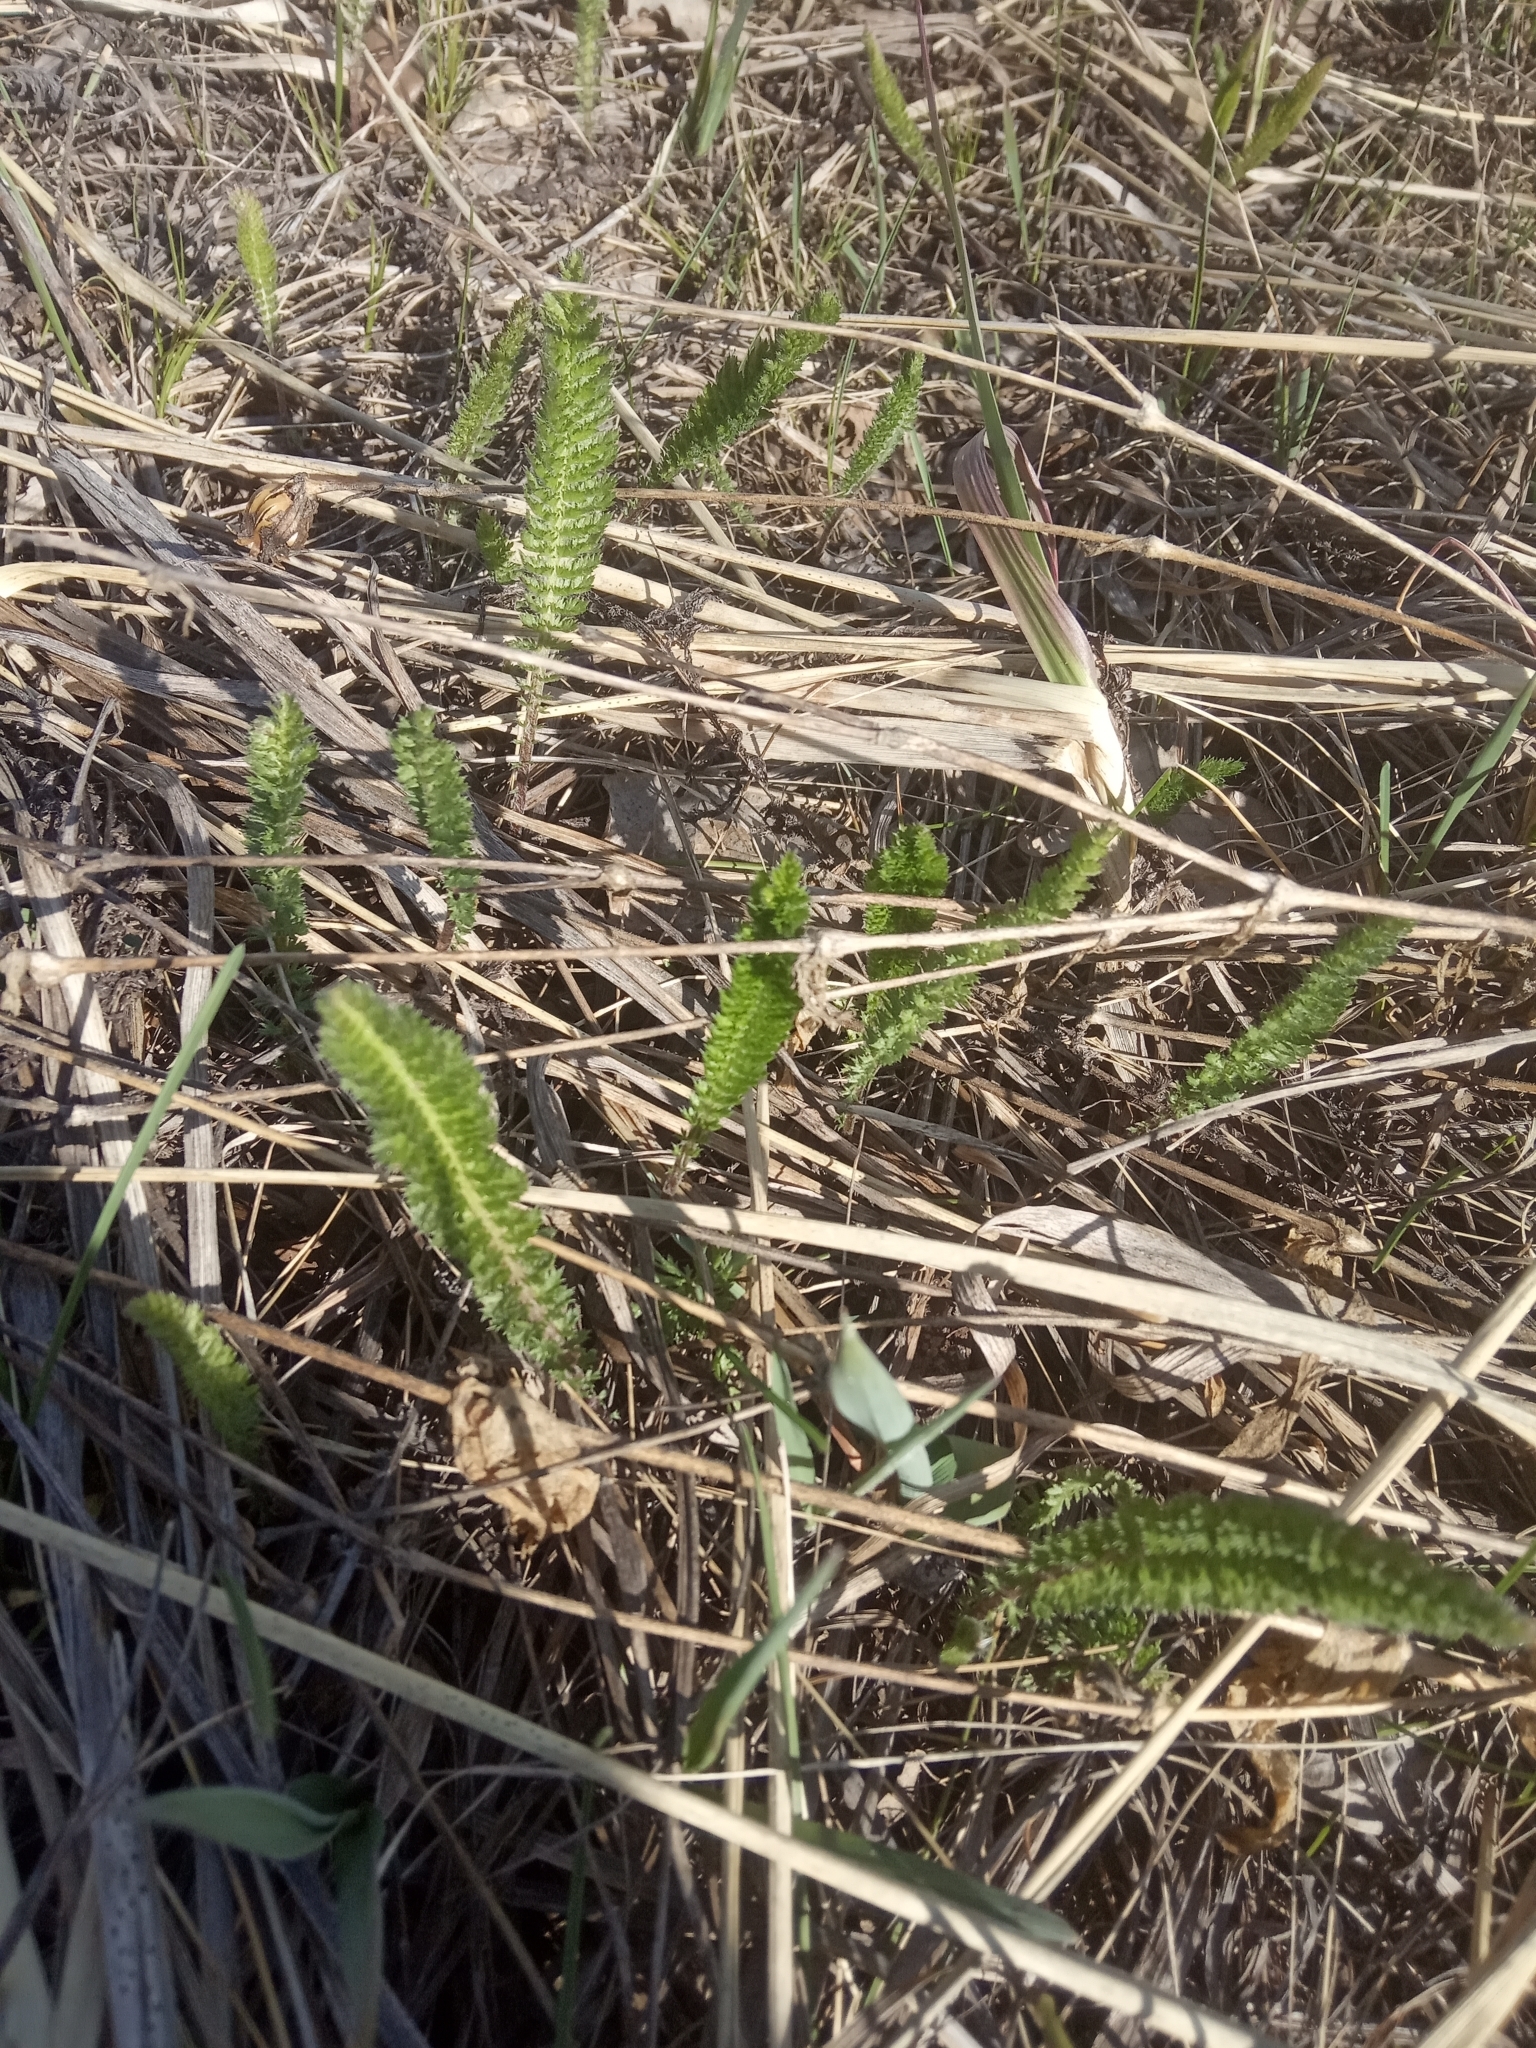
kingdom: Plantae
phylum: Tracheophyta
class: Magnoliopsida
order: Asterales
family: Asteraceae
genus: Achillea
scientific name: Achillea millefolium
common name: Yarrow
